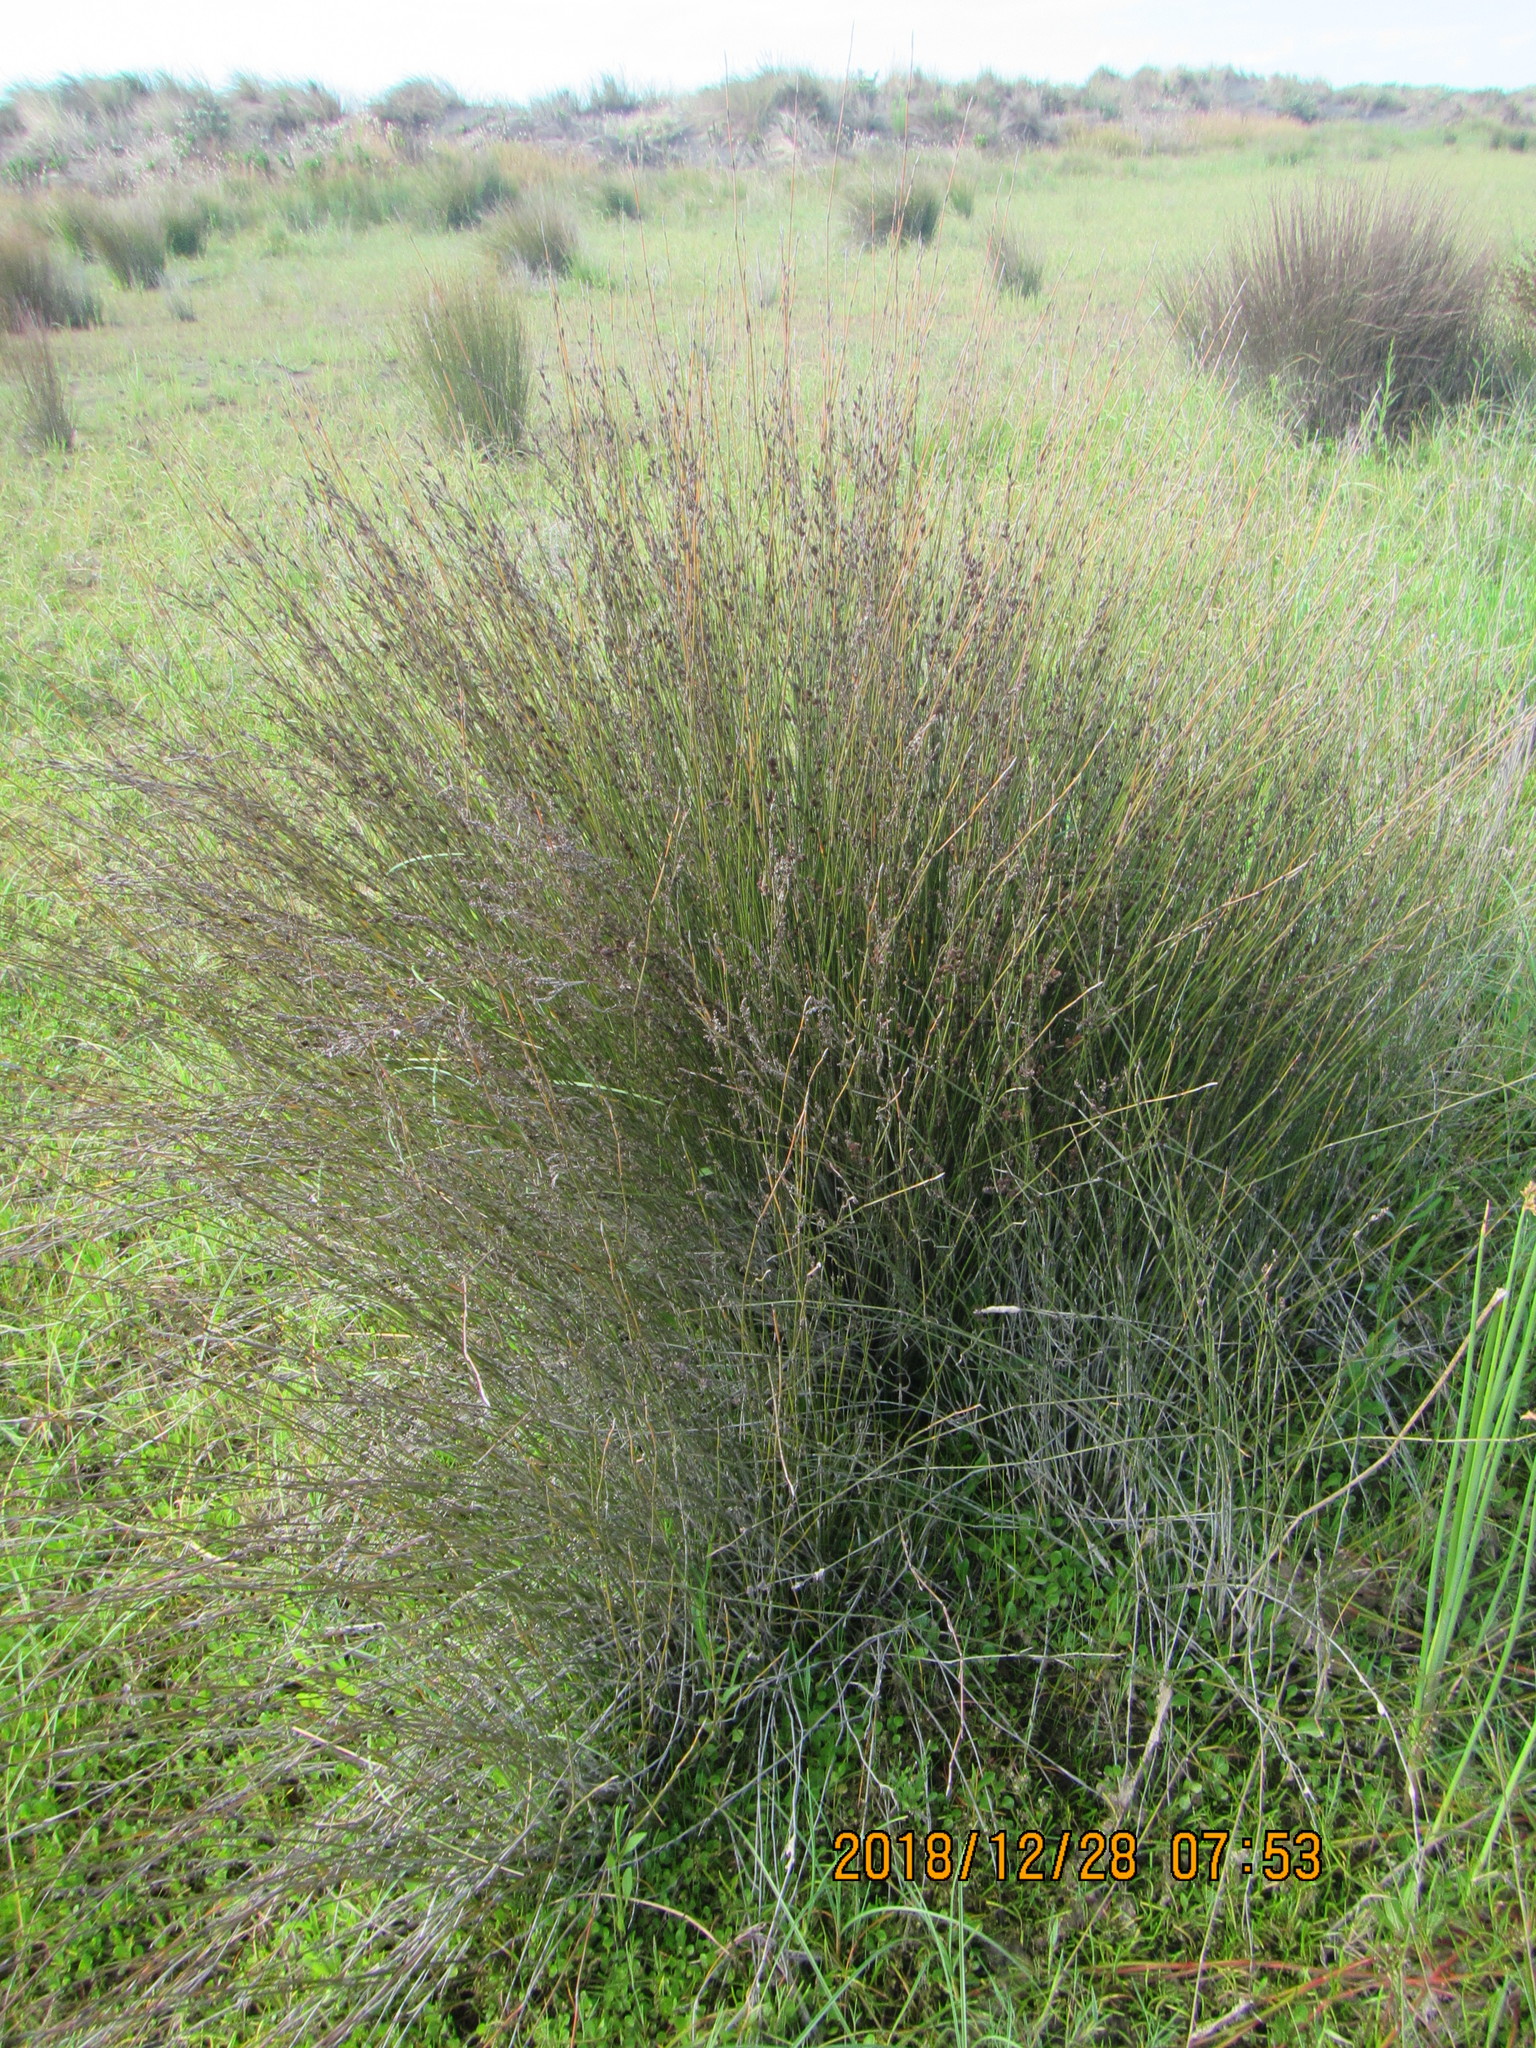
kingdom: Plantae
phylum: Tracheophyta
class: Liliopsida
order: Poales
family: Restionaceae
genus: Apodasmia
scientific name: Apodasmia similis
